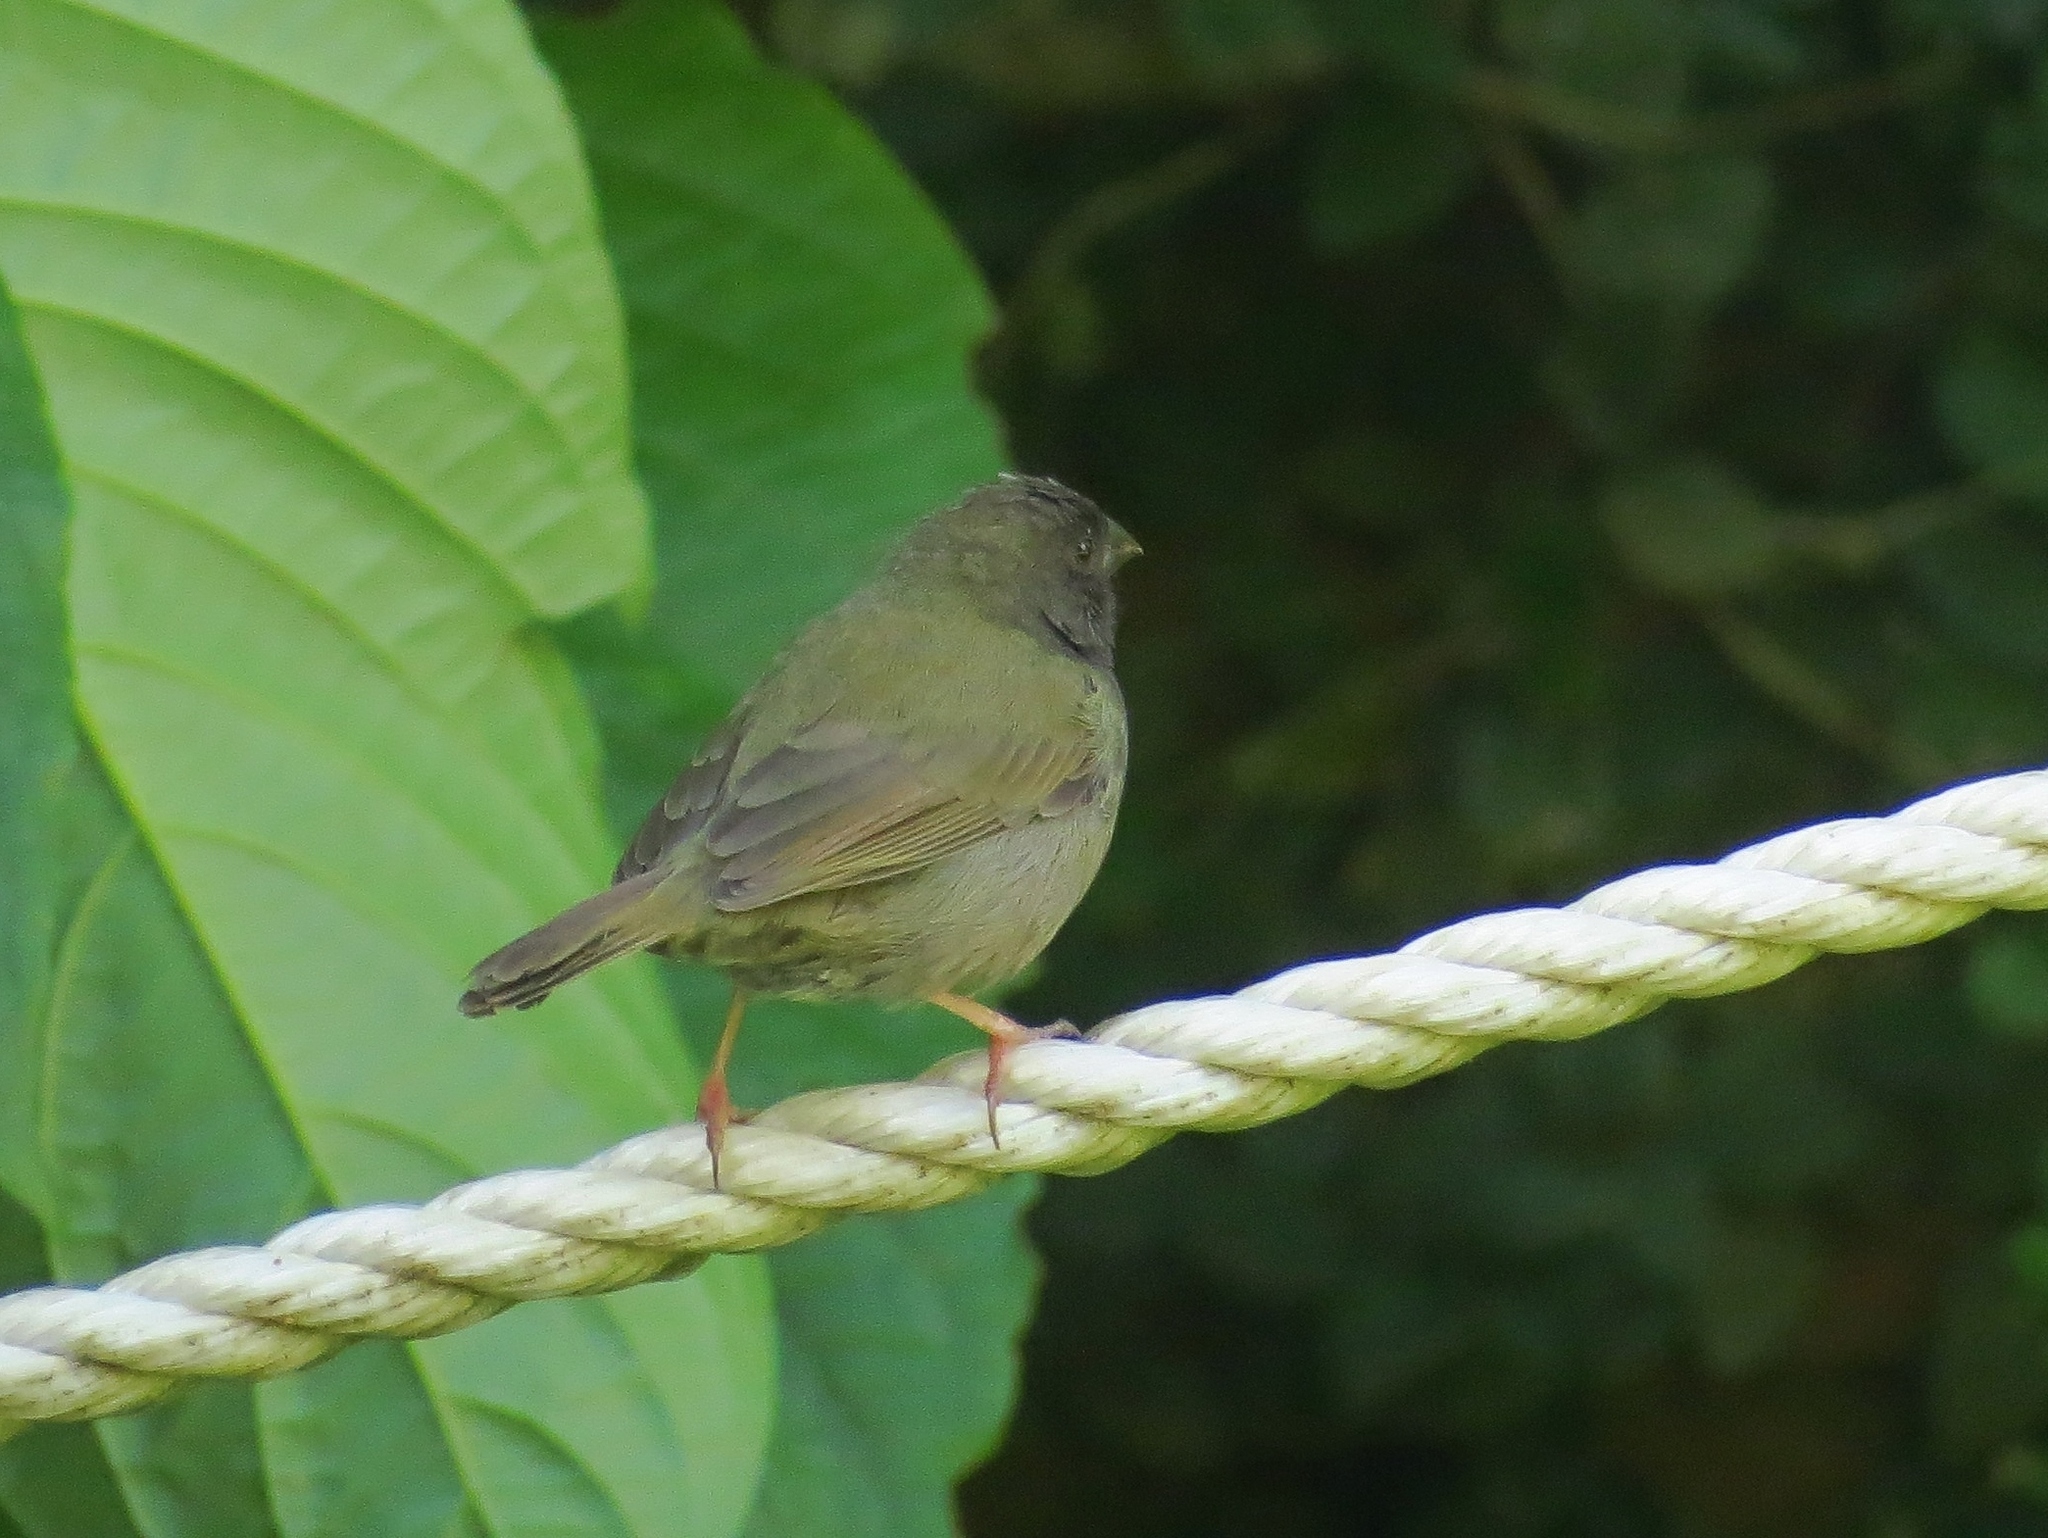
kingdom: Animalia
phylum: Chordata
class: Aves
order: Passeriformes
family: Thraupidae
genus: Melanospiza
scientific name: Melanospiza bicolor
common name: Black-faced grassquit
